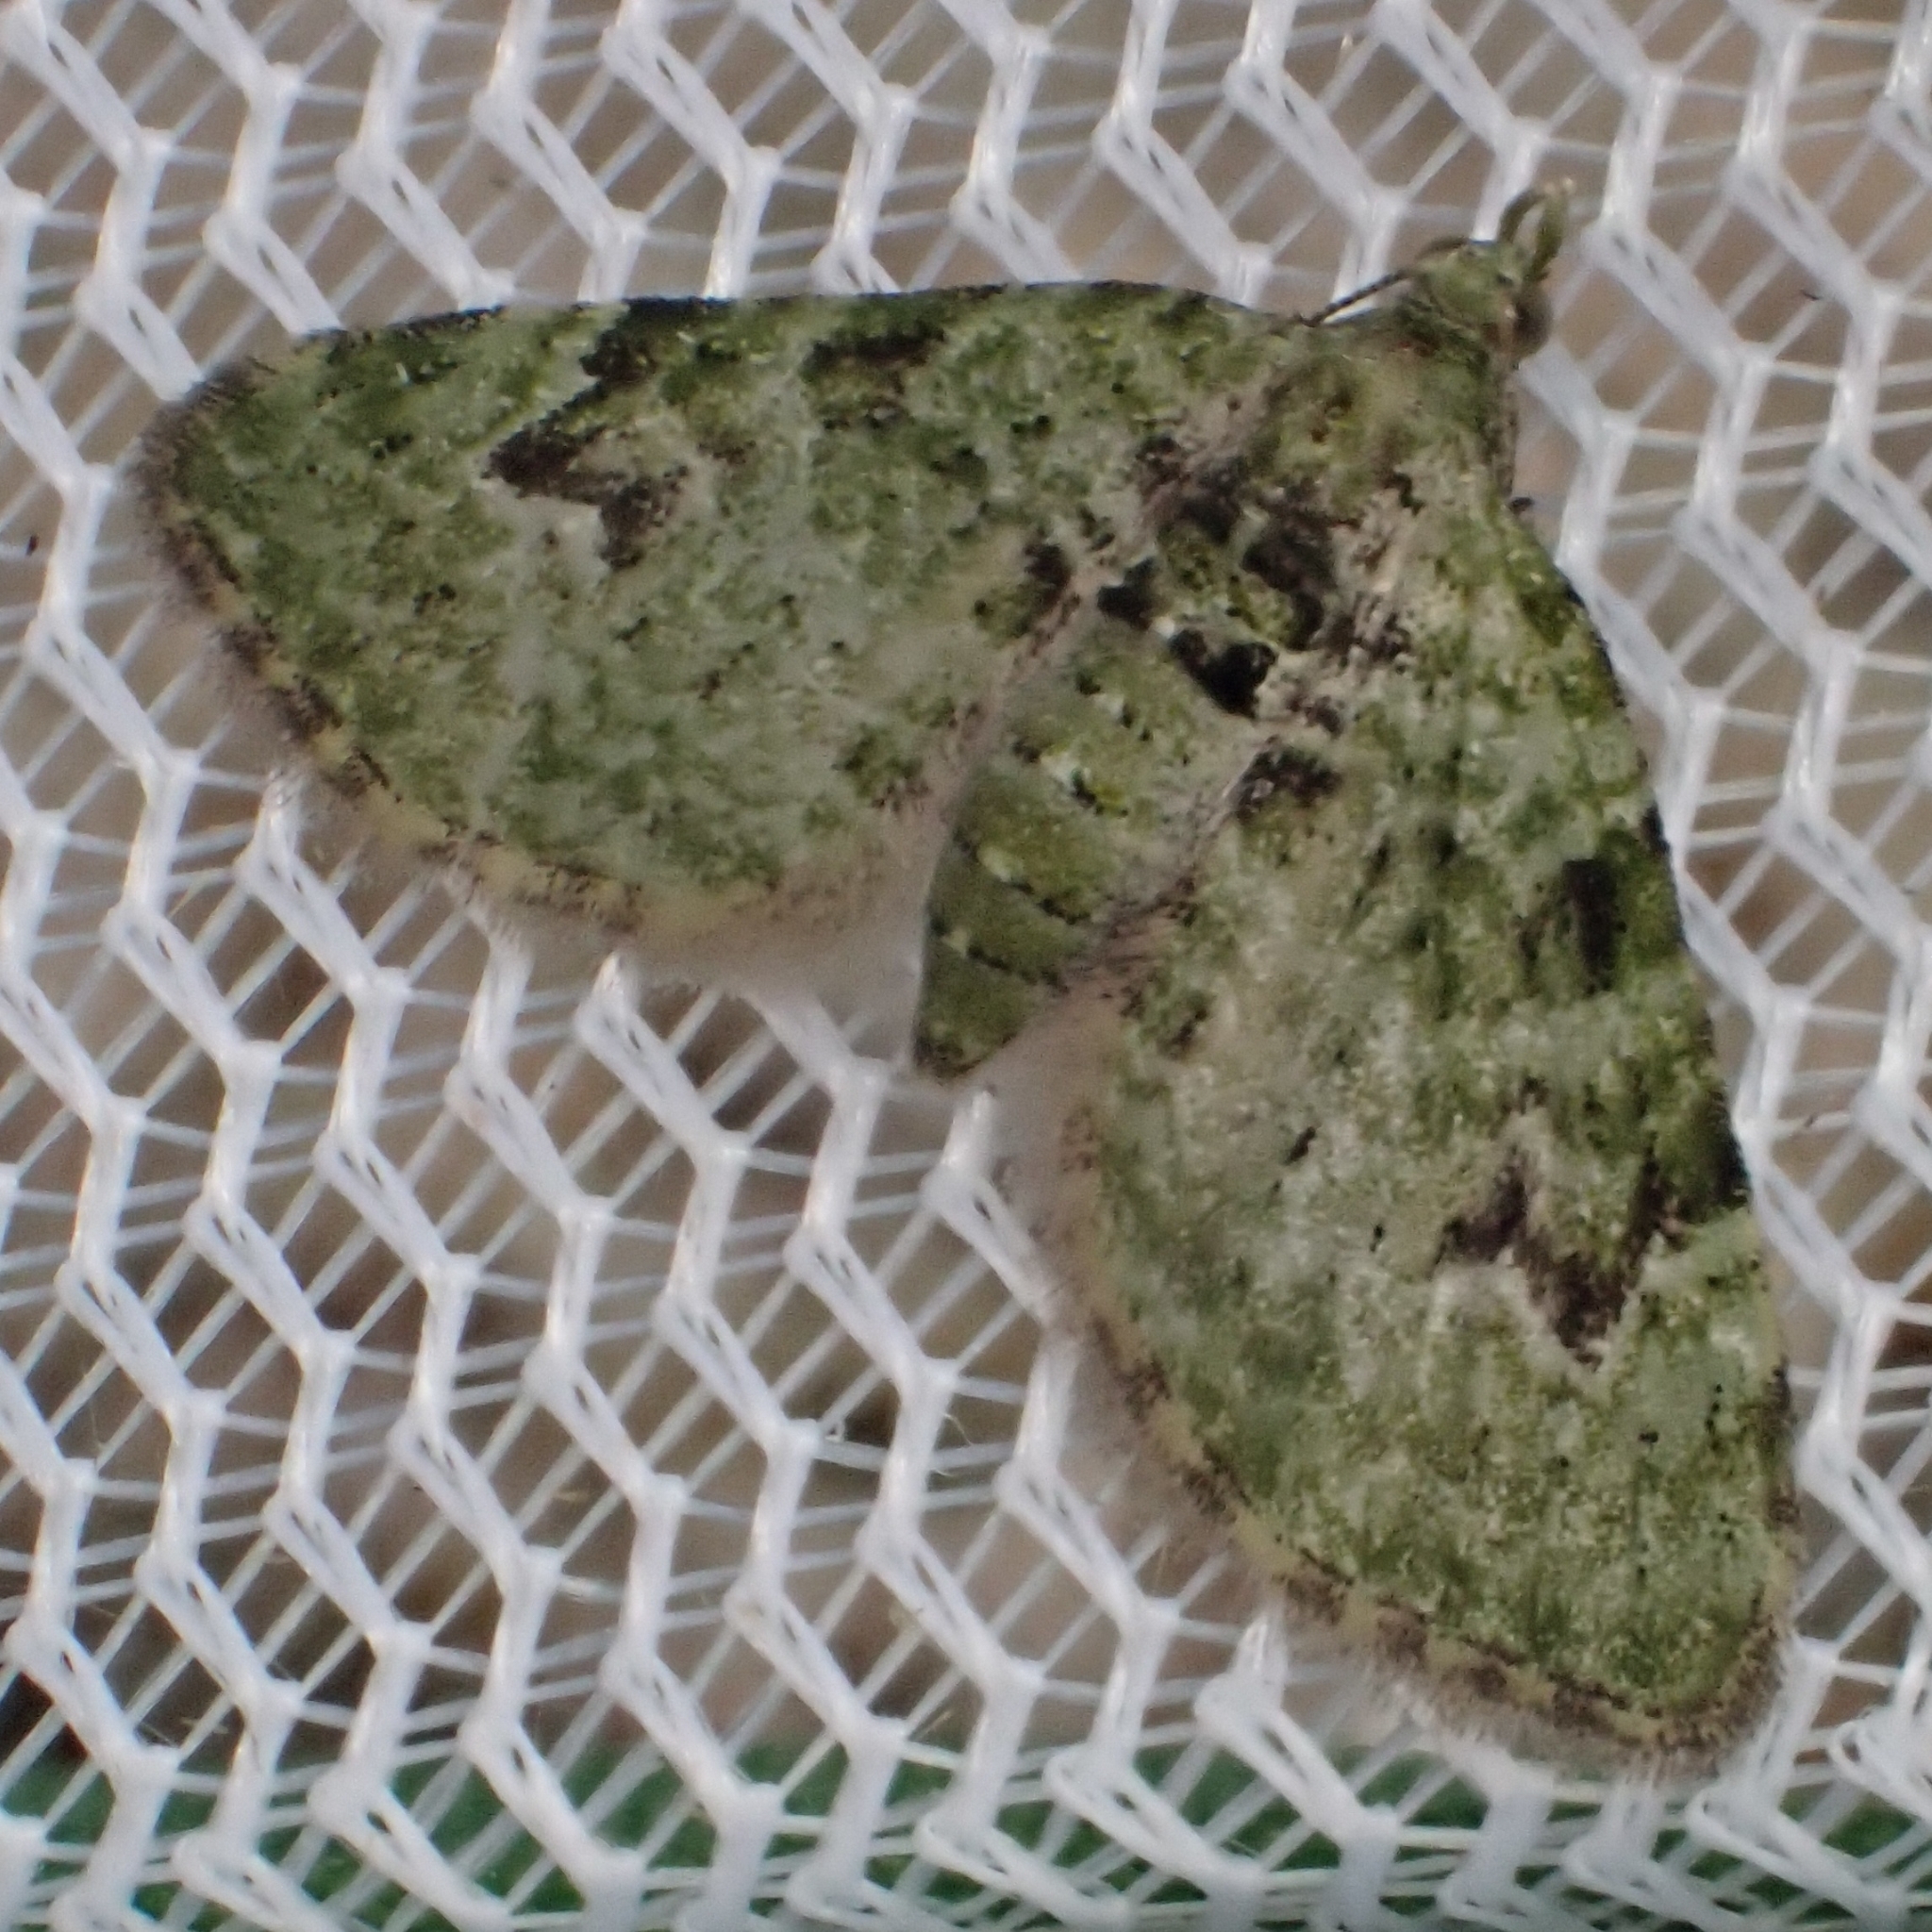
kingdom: Animalia
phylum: Arthropoda
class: Insecta
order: Lepidoptera
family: Geometridae
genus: Chloroclystis
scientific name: Chloroclystis v-ata
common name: V-pug
